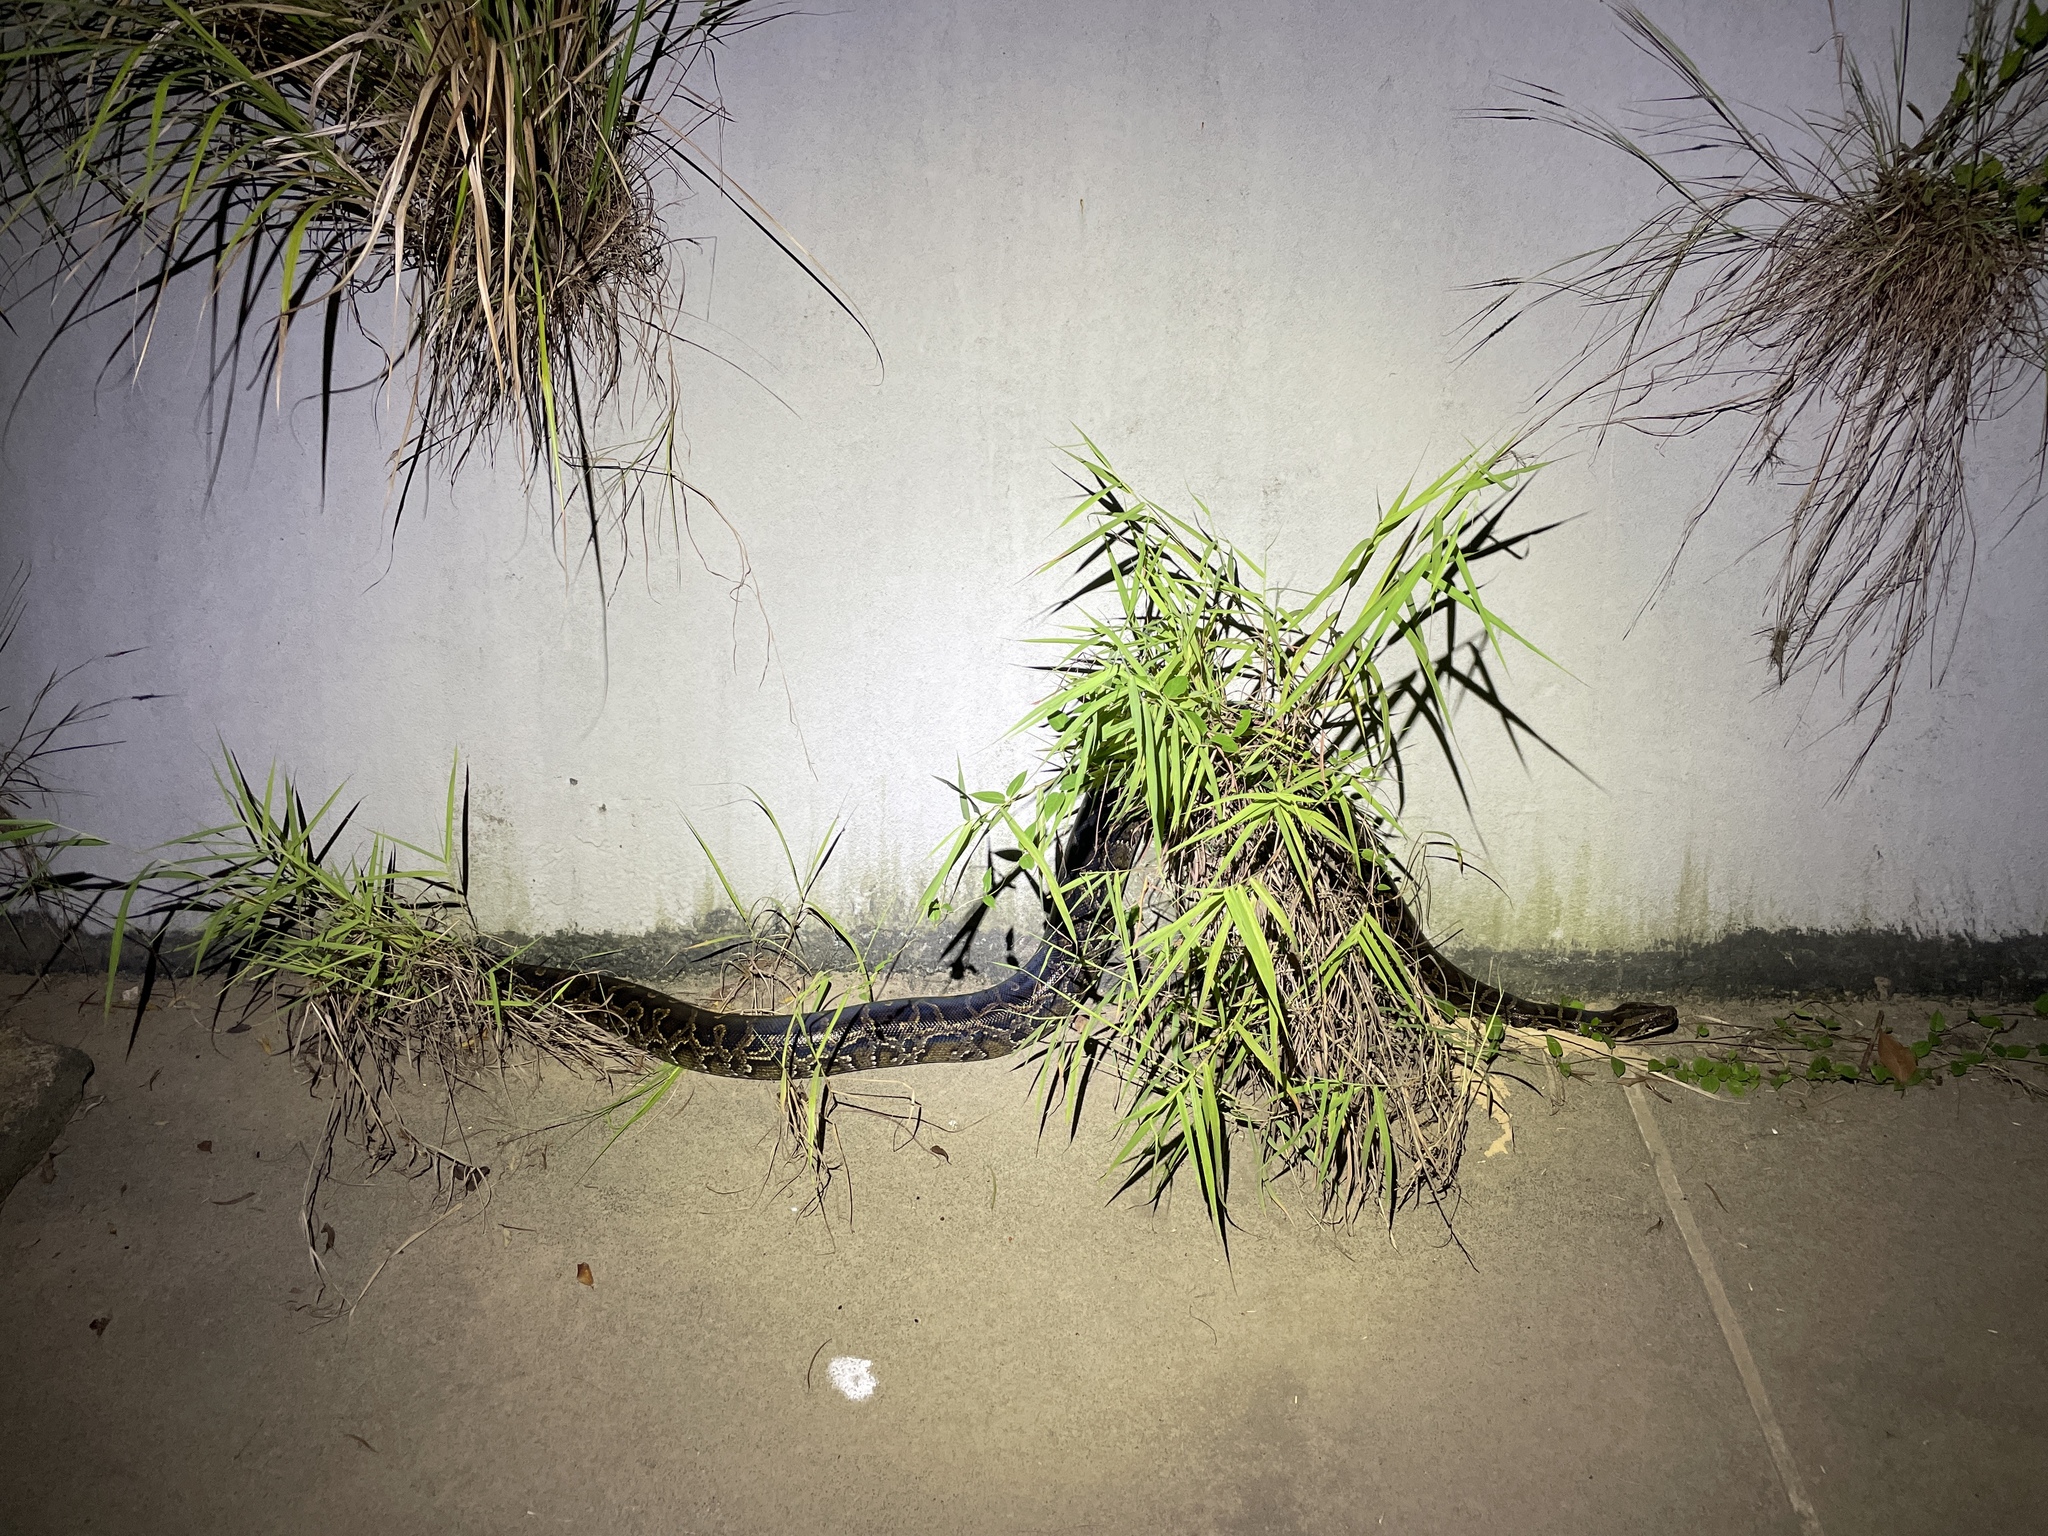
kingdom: Animalia
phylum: Chordata
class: Squamata
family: Pythonidae
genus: Python
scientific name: Python bivittatus
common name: Burmese python
